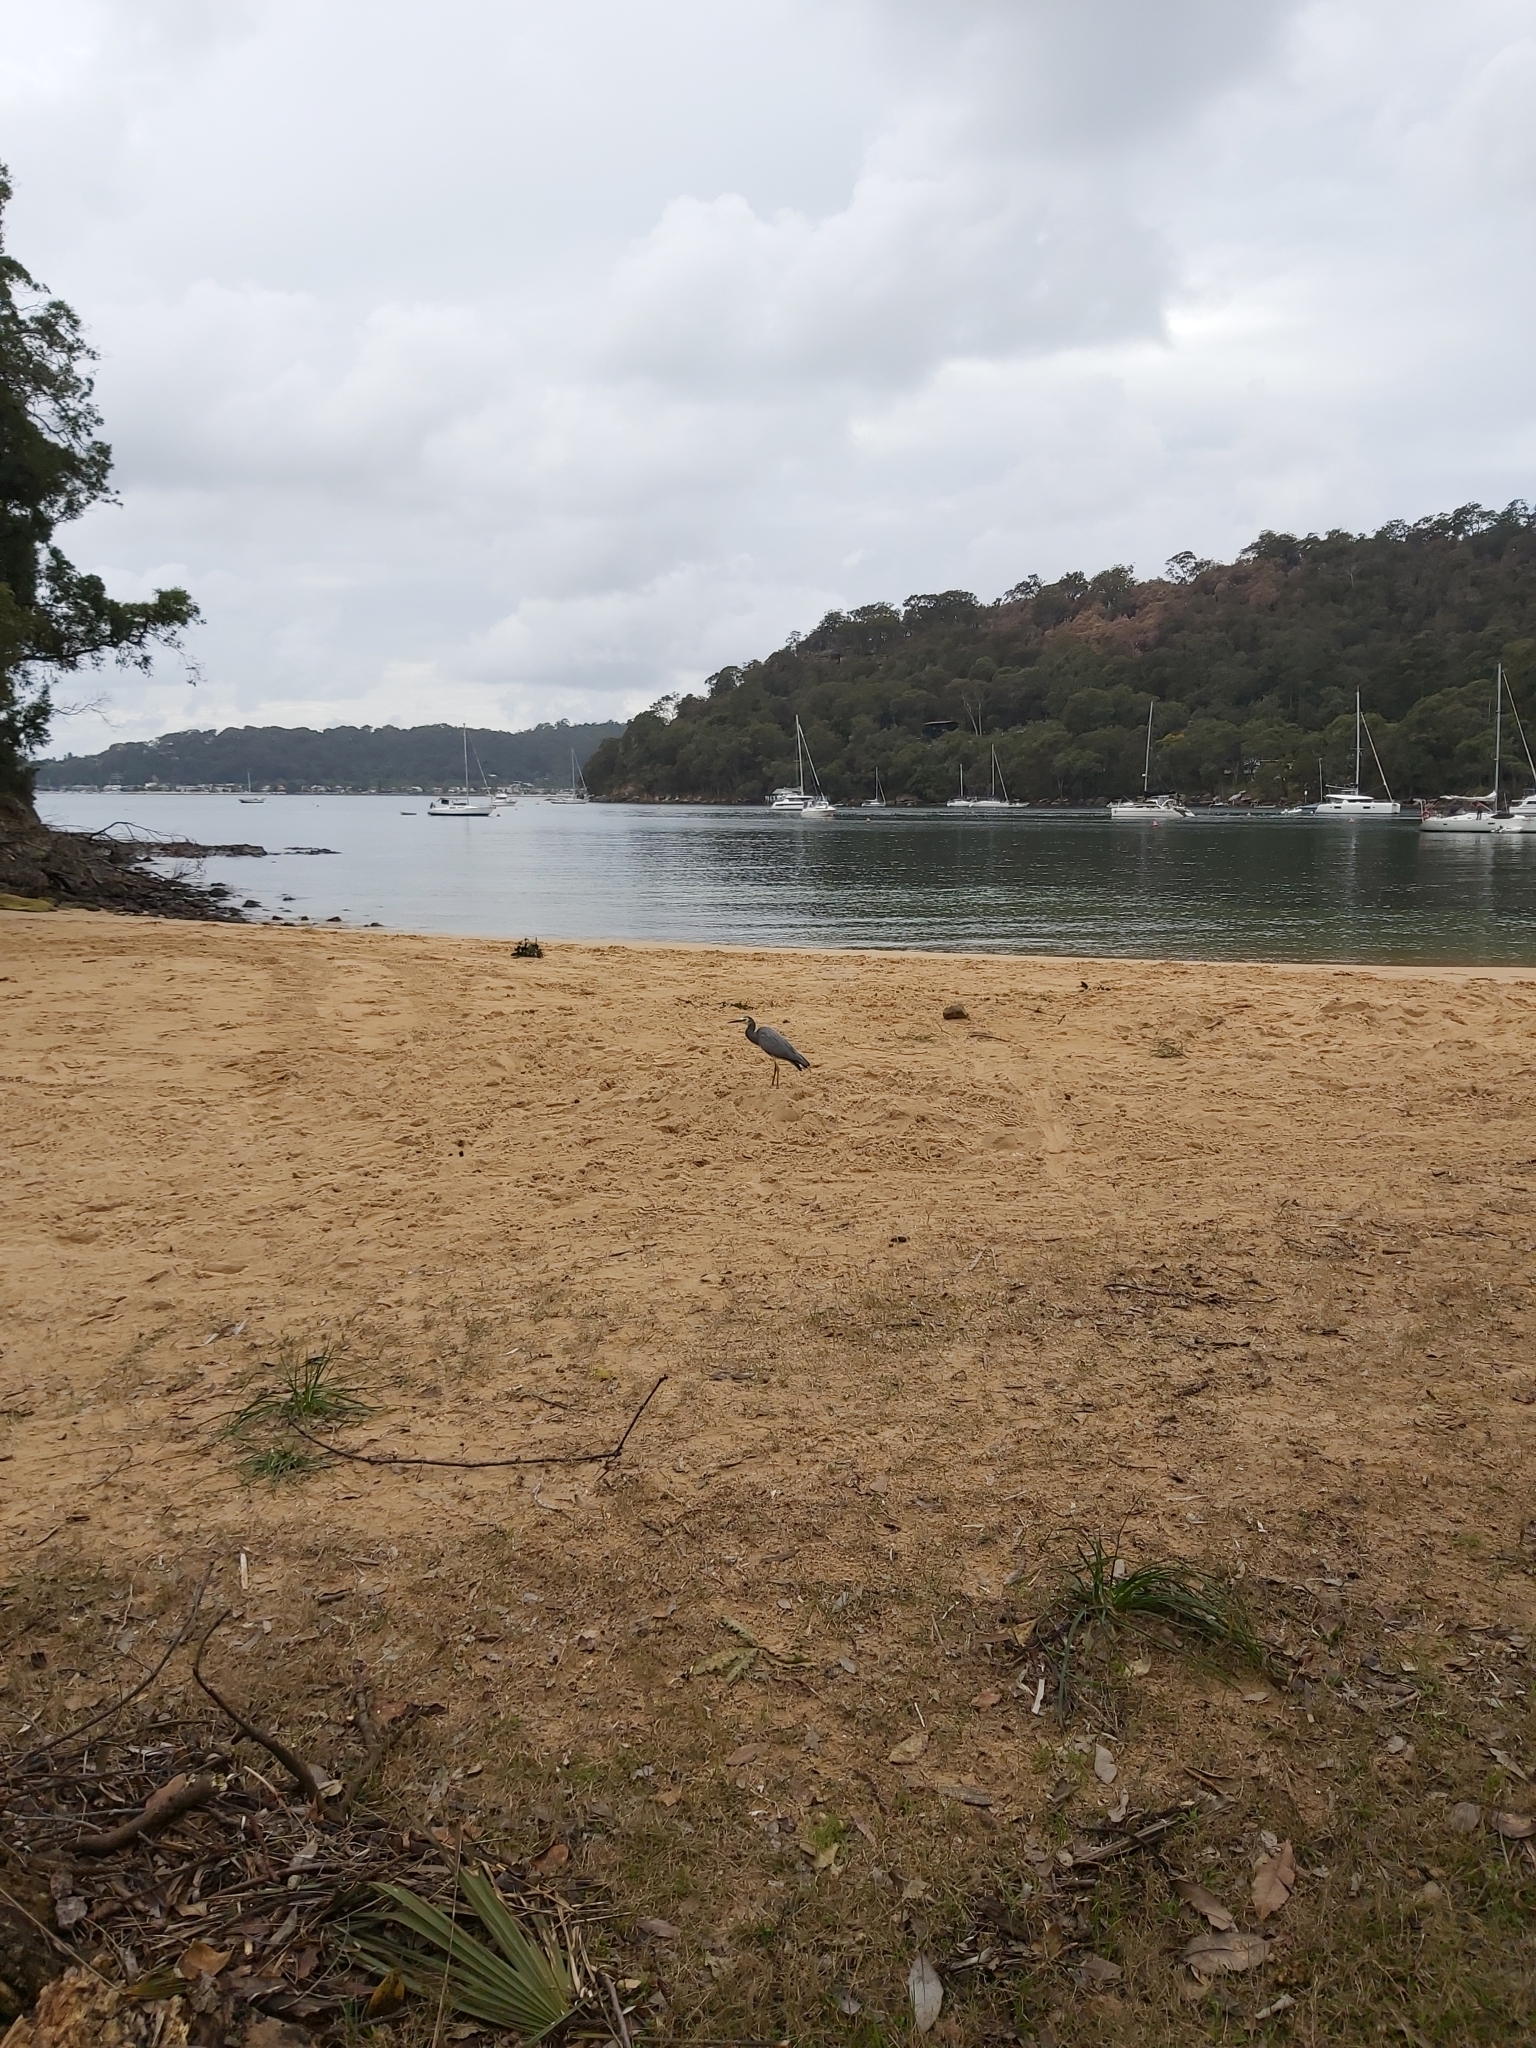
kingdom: Animalia
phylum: Chordata
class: Aves
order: Pelecaniformes
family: Ardeidae
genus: Egretta
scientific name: Egretta novaehollandiae
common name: White-faced heron
